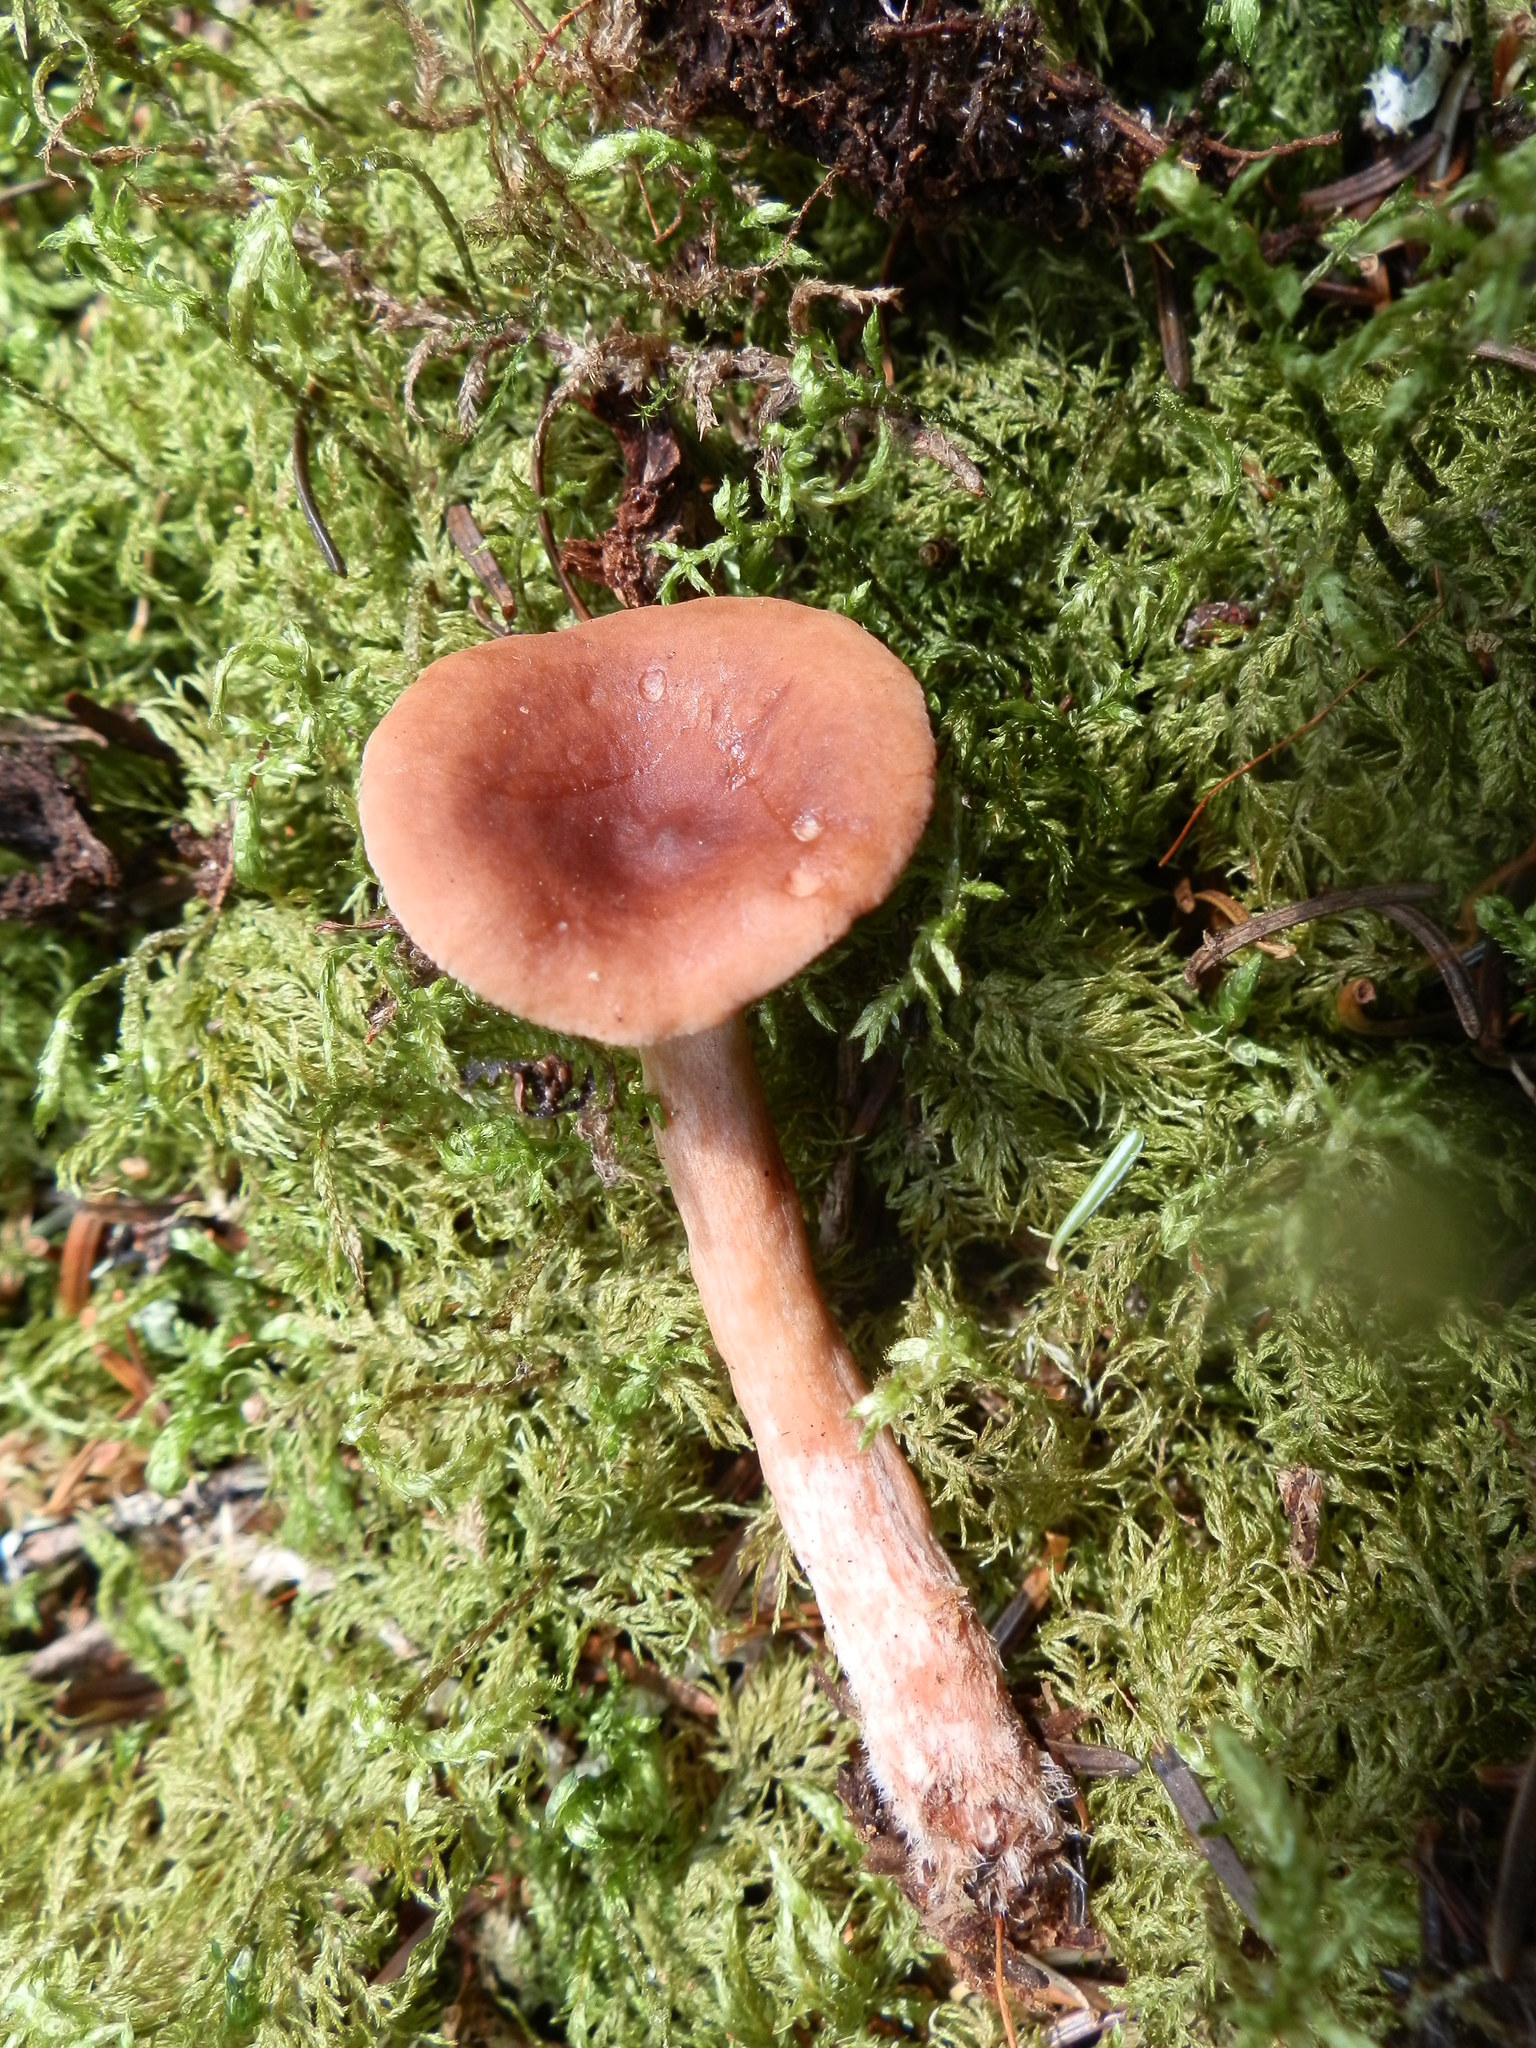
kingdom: Fungi
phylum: Basidiomycota
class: Agaricomycetes
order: Russulales
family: Russulaceae
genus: Lactarius
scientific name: Lactarius camphoratus
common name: Curry milkcap
